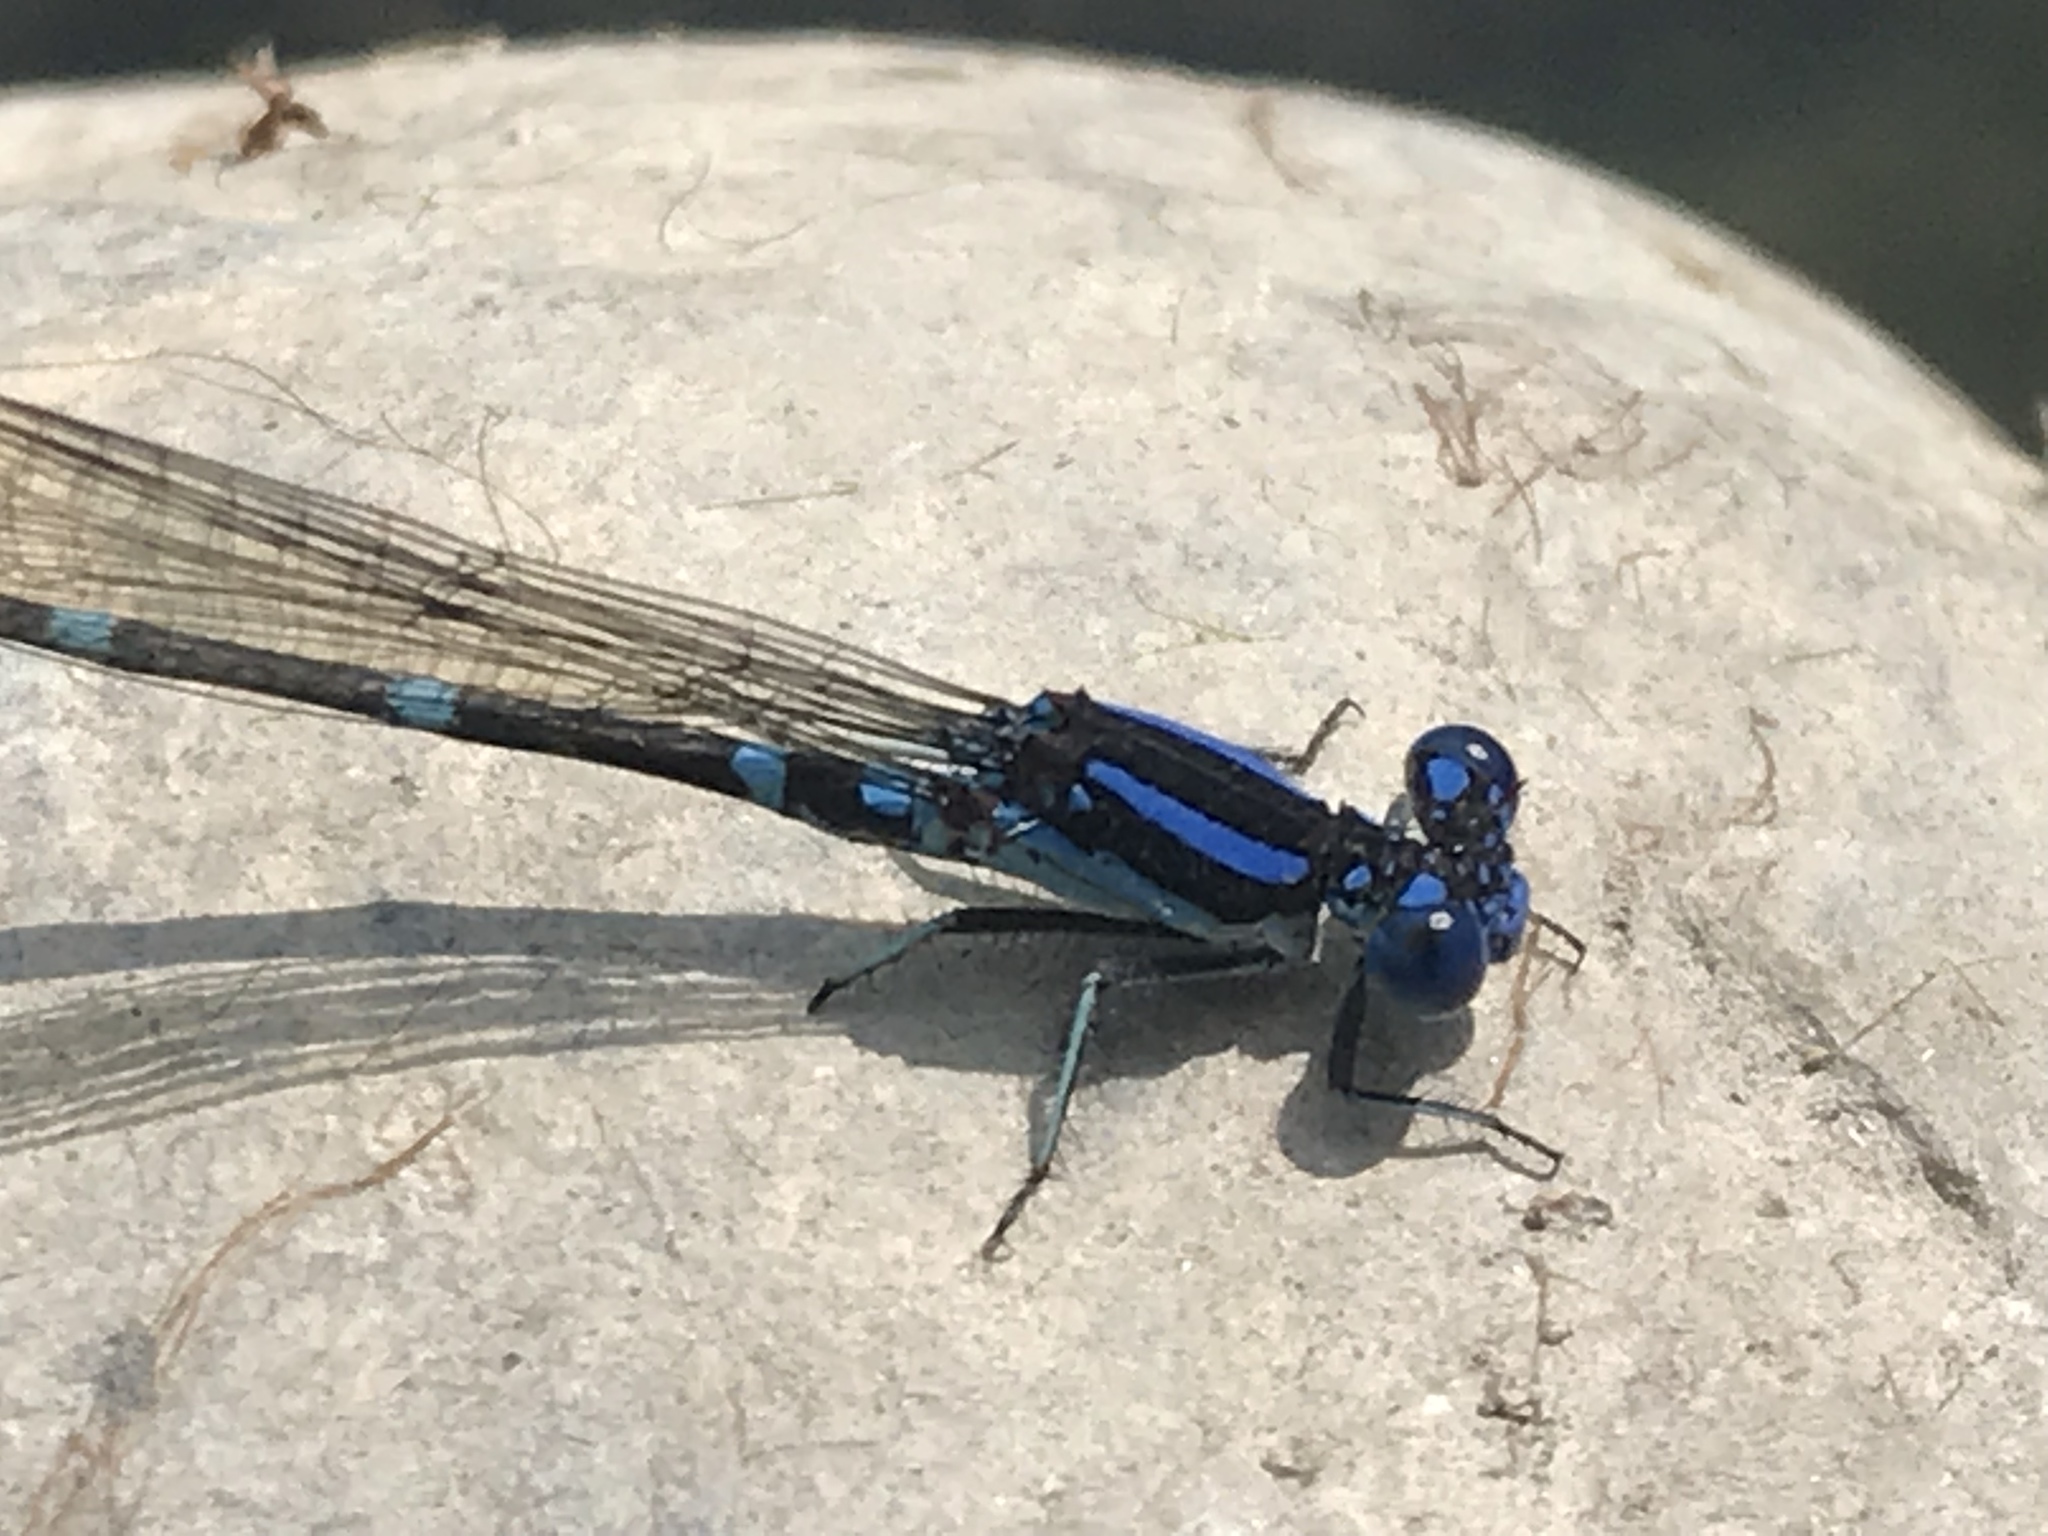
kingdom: Animalia
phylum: Arthropoda
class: Insecta
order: Odonata
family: Coenagrionidae
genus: Argia
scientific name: Argia sedula
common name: Blue-ringed dancer
